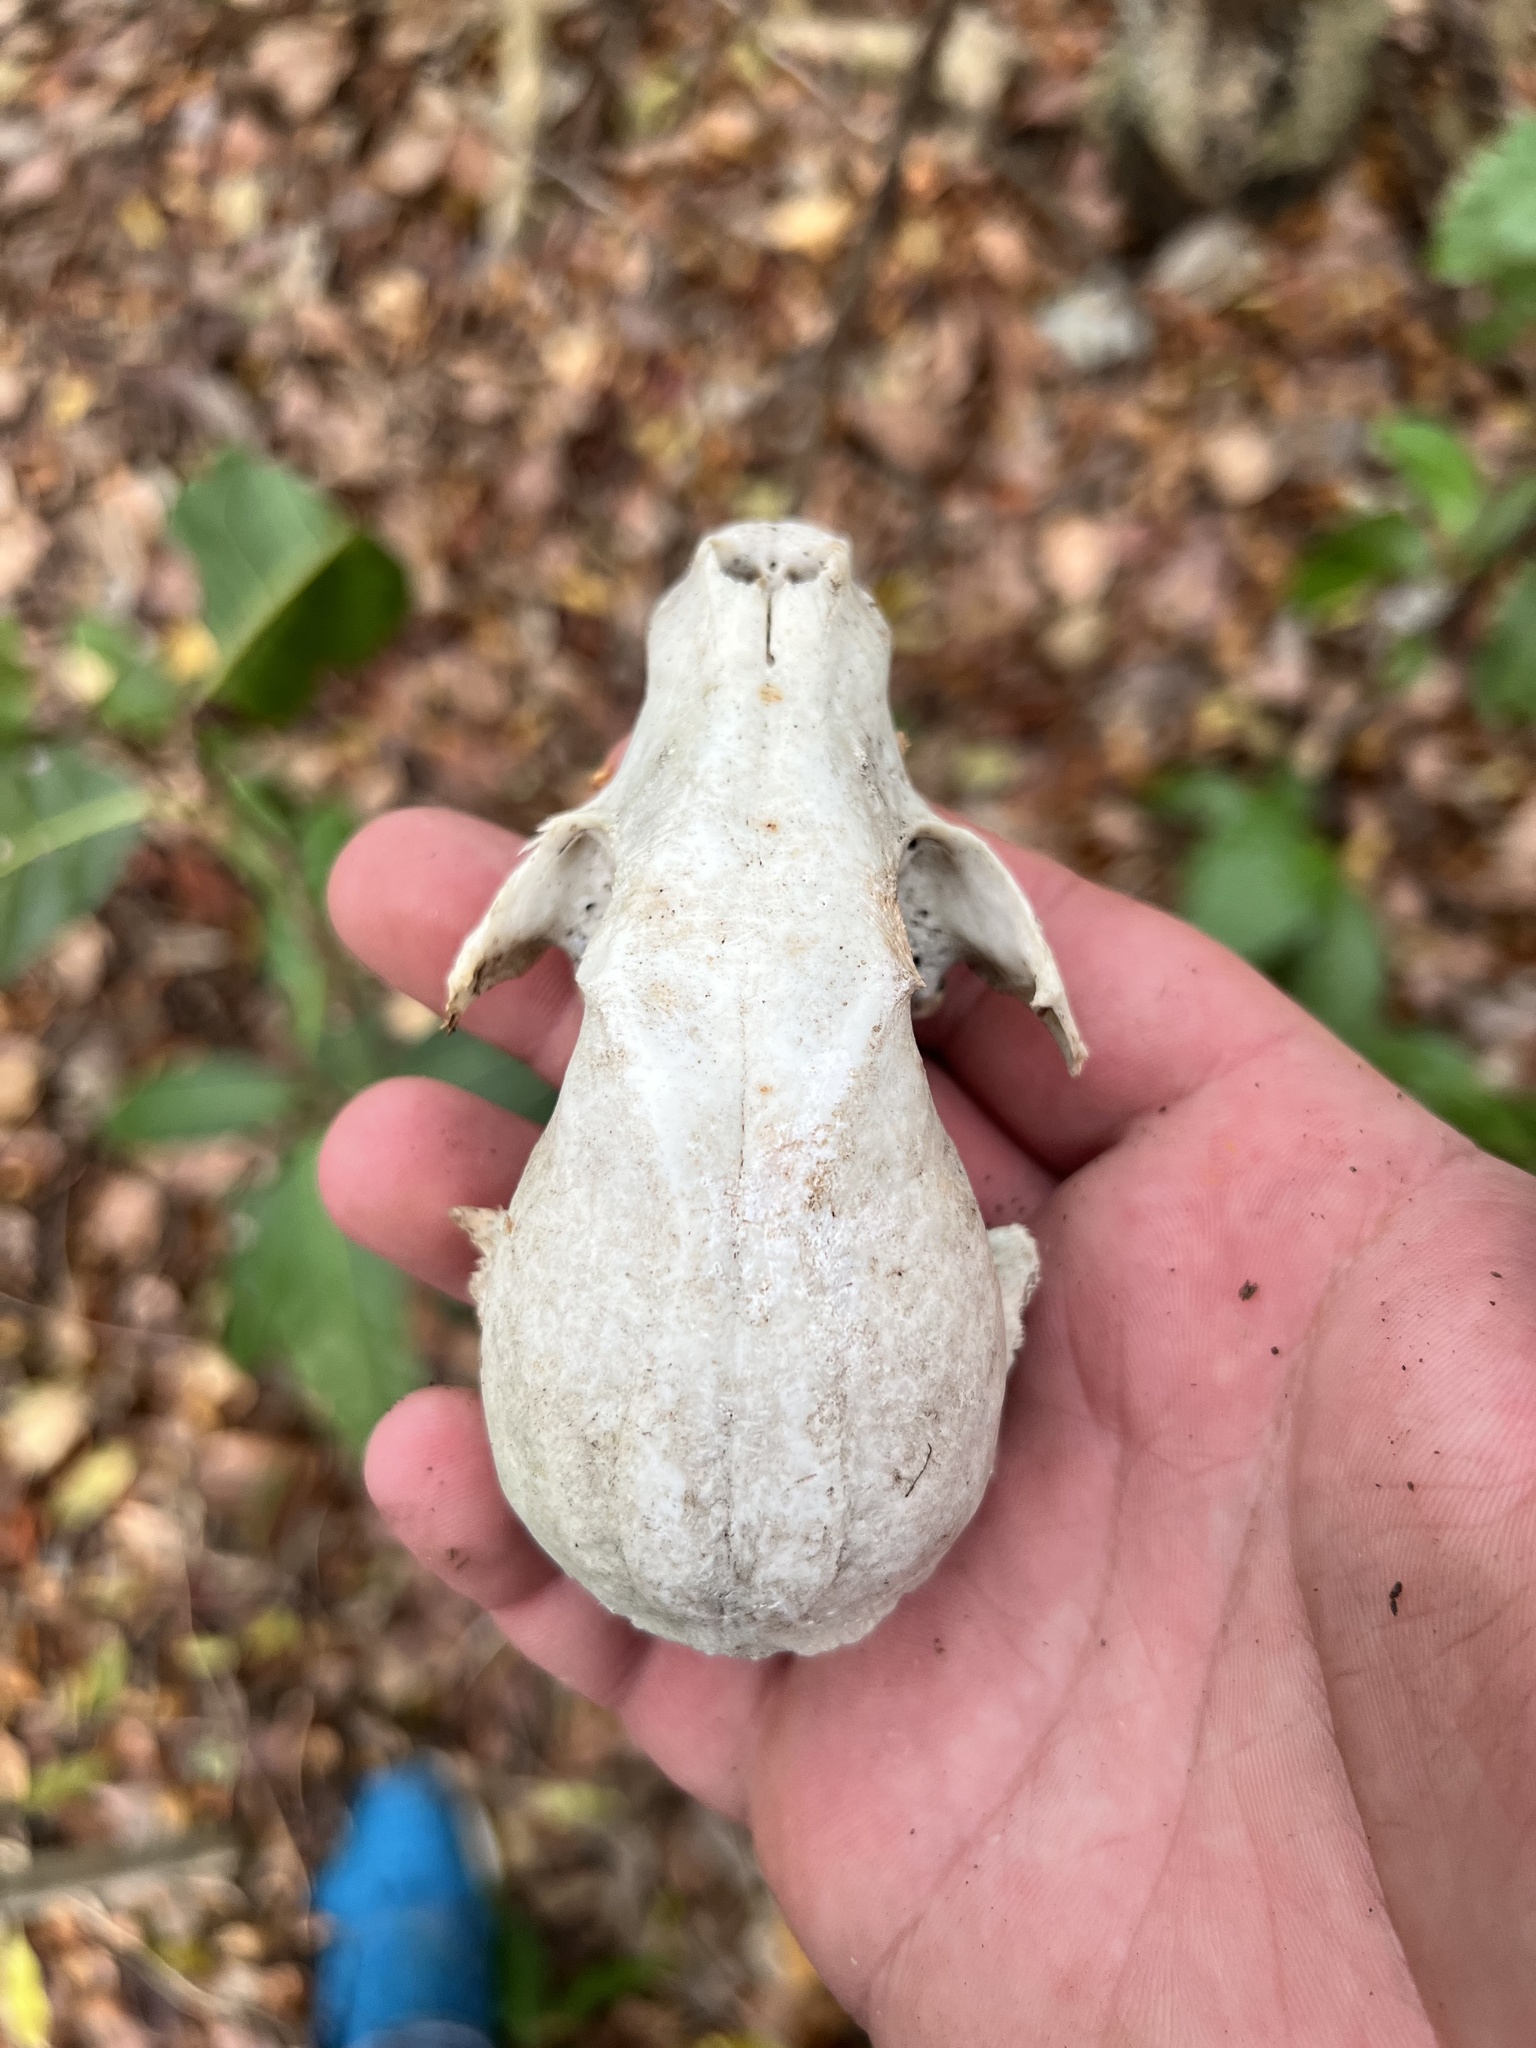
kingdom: Animalia
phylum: Chordata
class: Mammalia
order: Carnivora
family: Procyonidae
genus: Procyon
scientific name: Procyon lotor
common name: Raccoon
